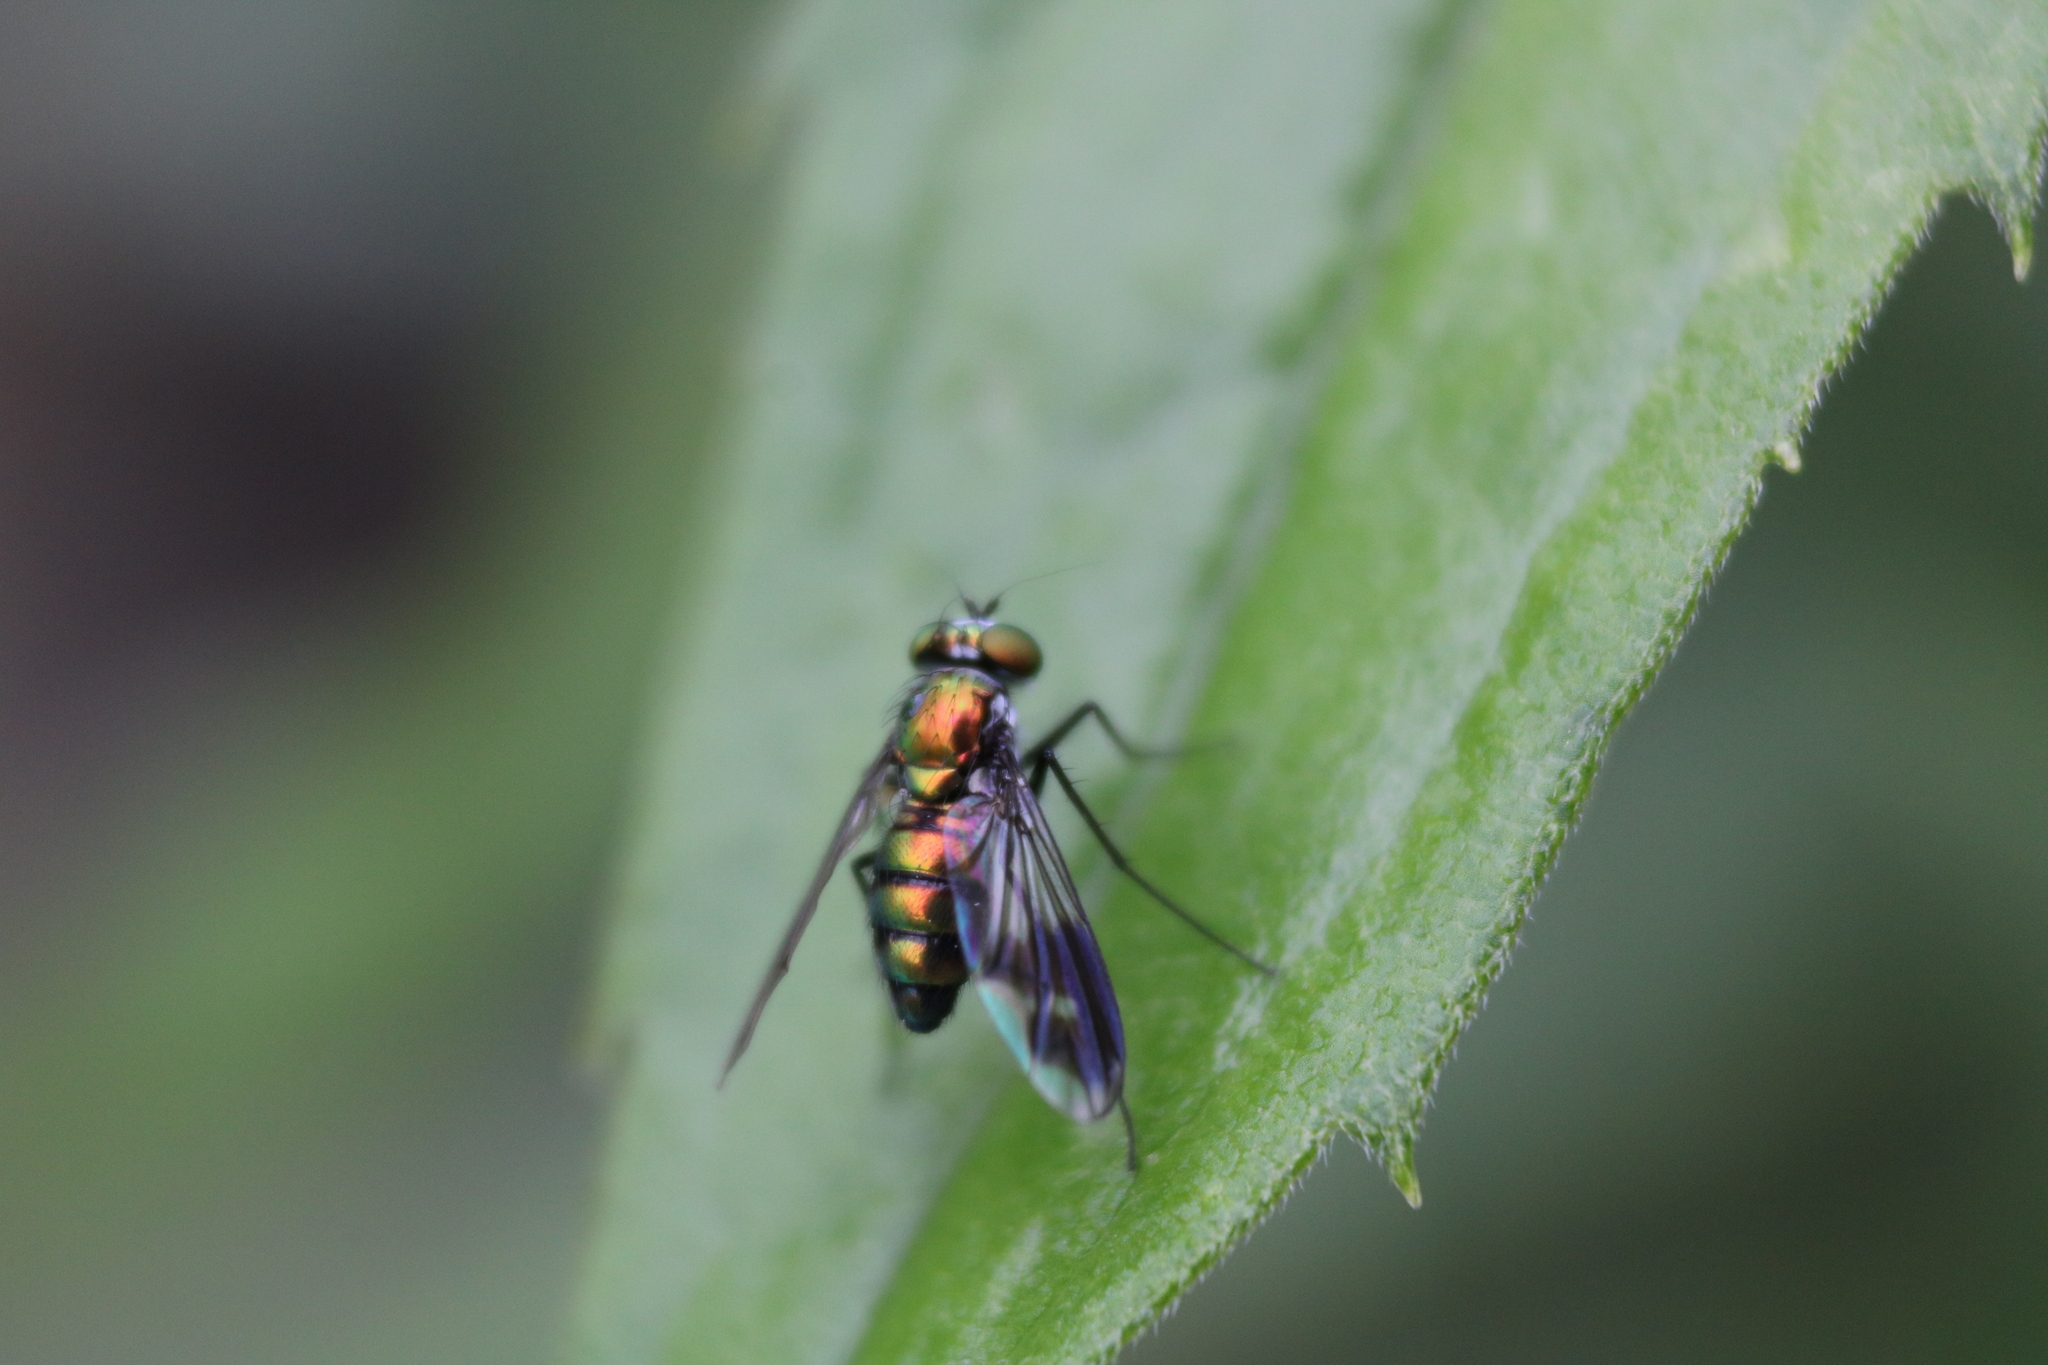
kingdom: Animalia
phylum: Arthropoda
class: Insecta
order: Diptera
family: Dolichopodidae
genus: Condylostylus
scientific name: Condylostylus patibulatus
